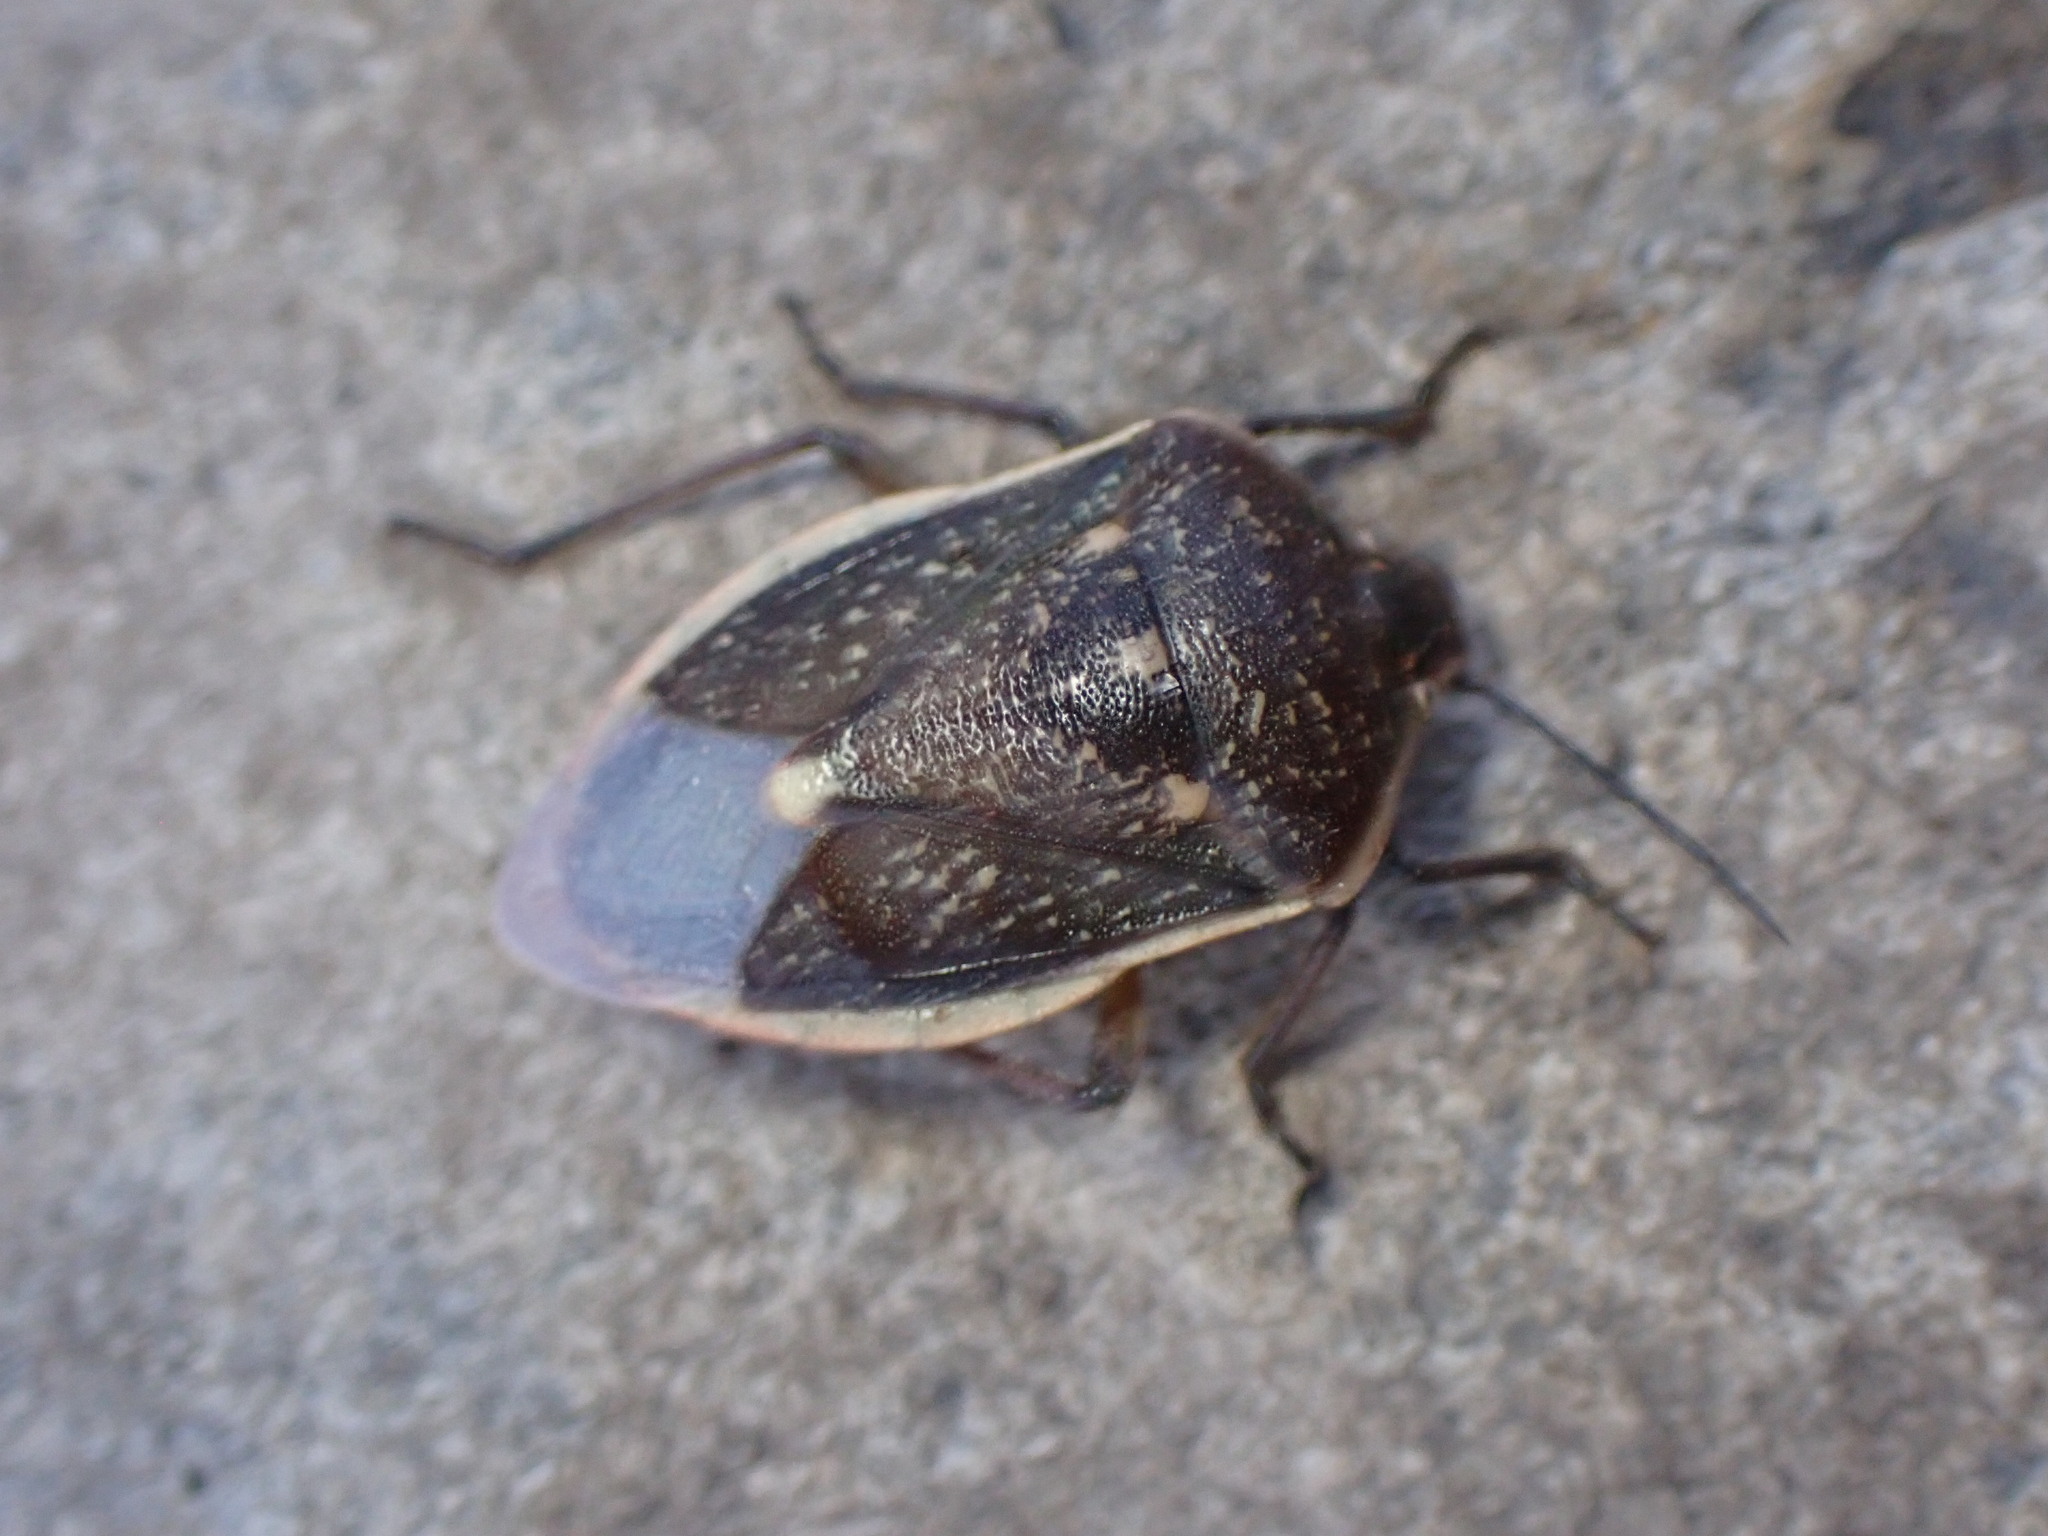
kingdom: Animalia
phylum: Arthropoda
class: Insecta
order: Hemiptera
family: Pentatomidae
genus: Chlorochroa
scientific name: Chlorochroa sayi
